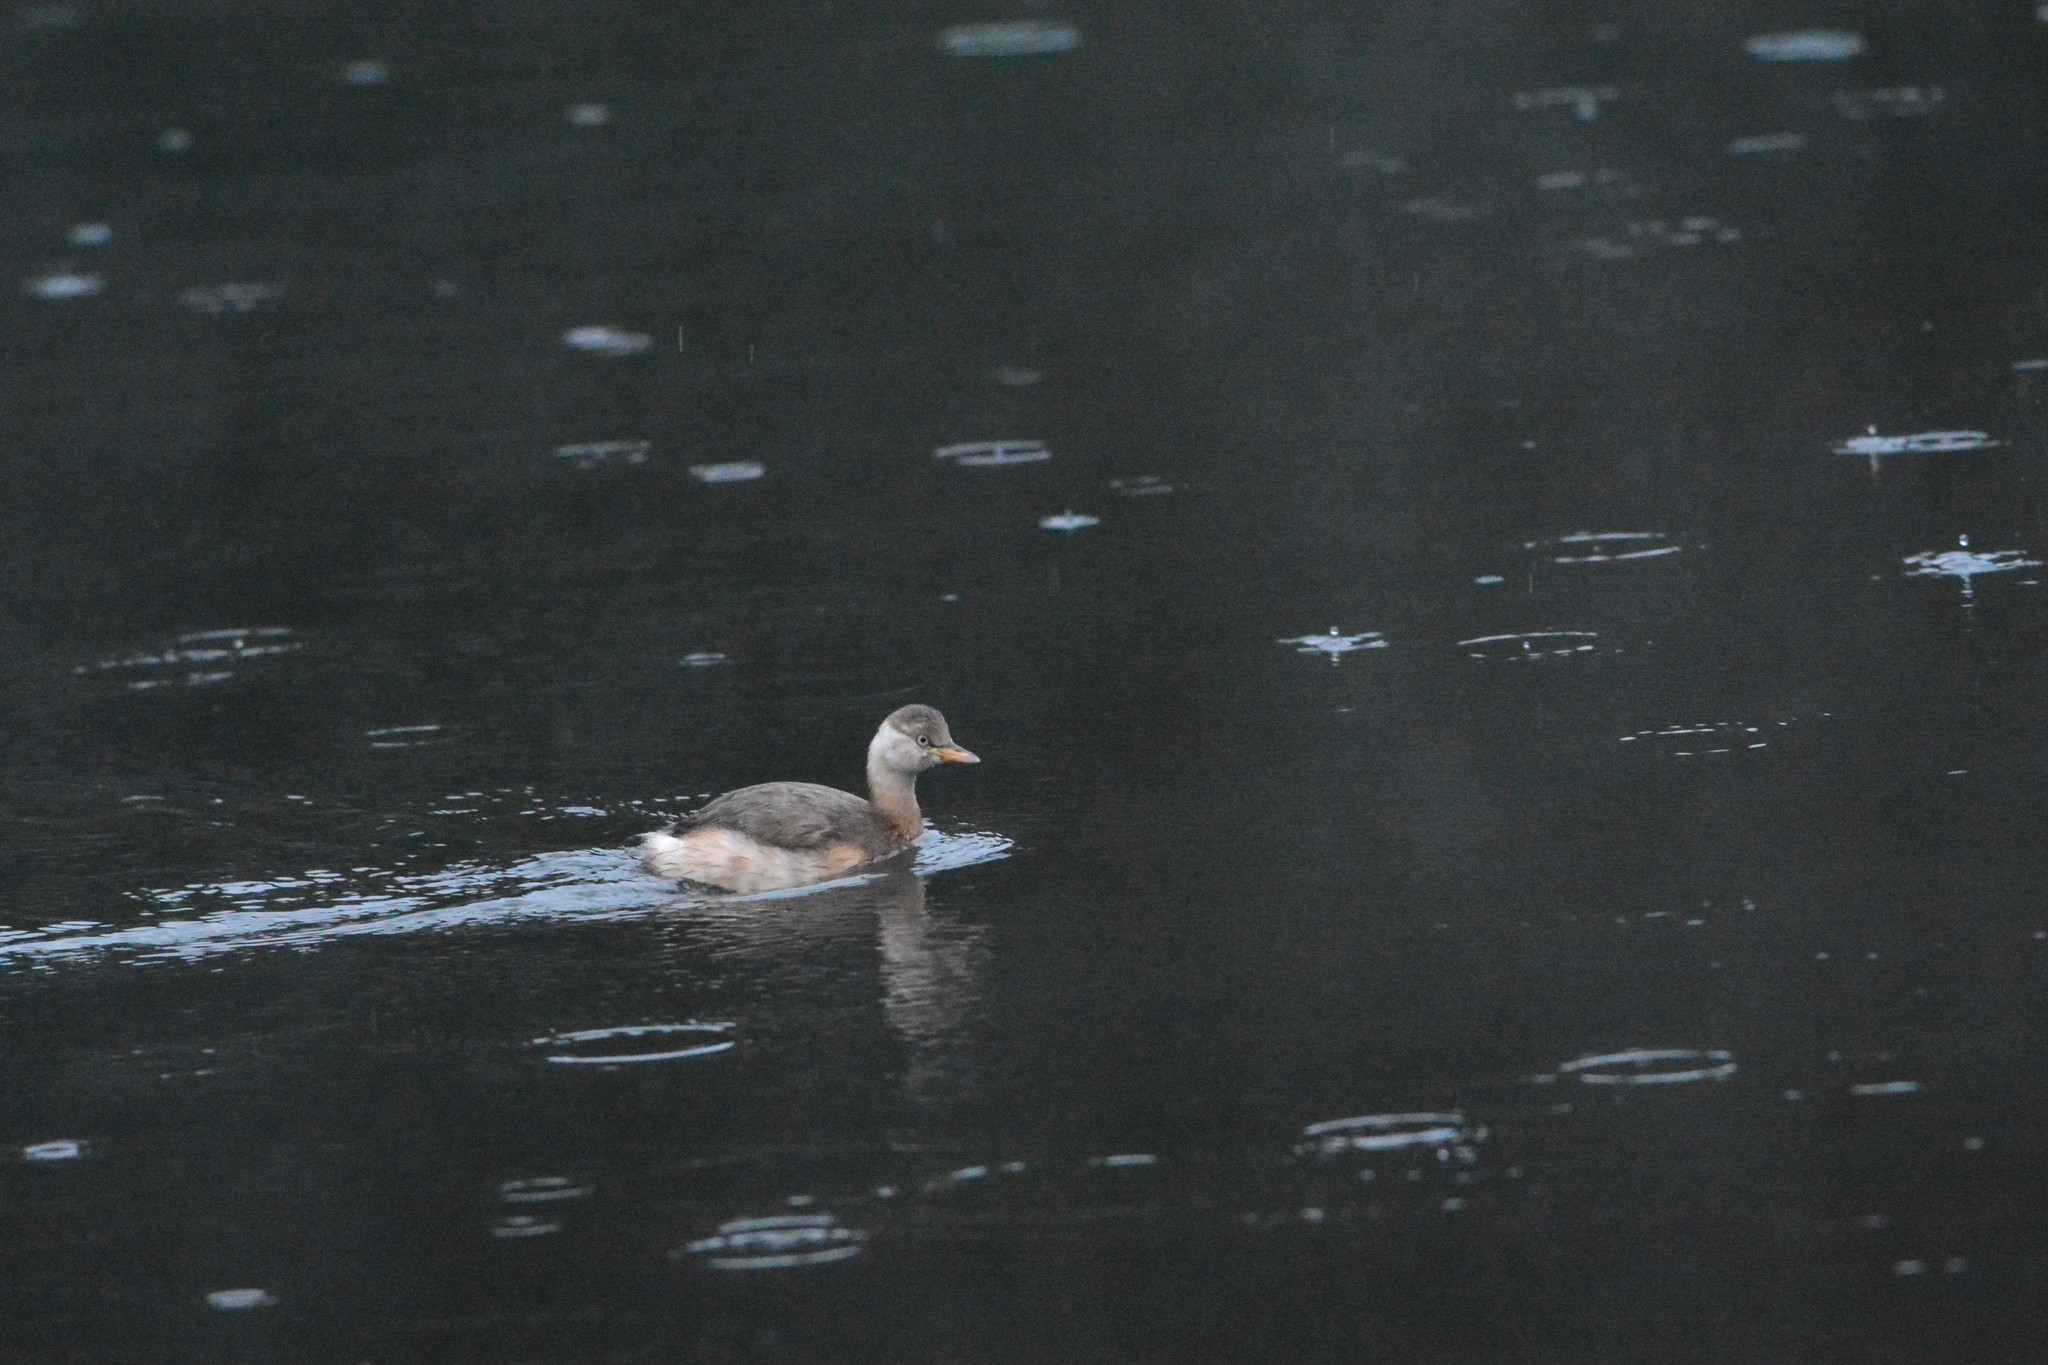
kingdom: Animalia
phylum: Chordata
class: Aves
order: Podicipediformes
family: Podicipedidae
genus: Tachybaptus
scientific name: Tachybaptus ruficollis
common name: Little grebe
